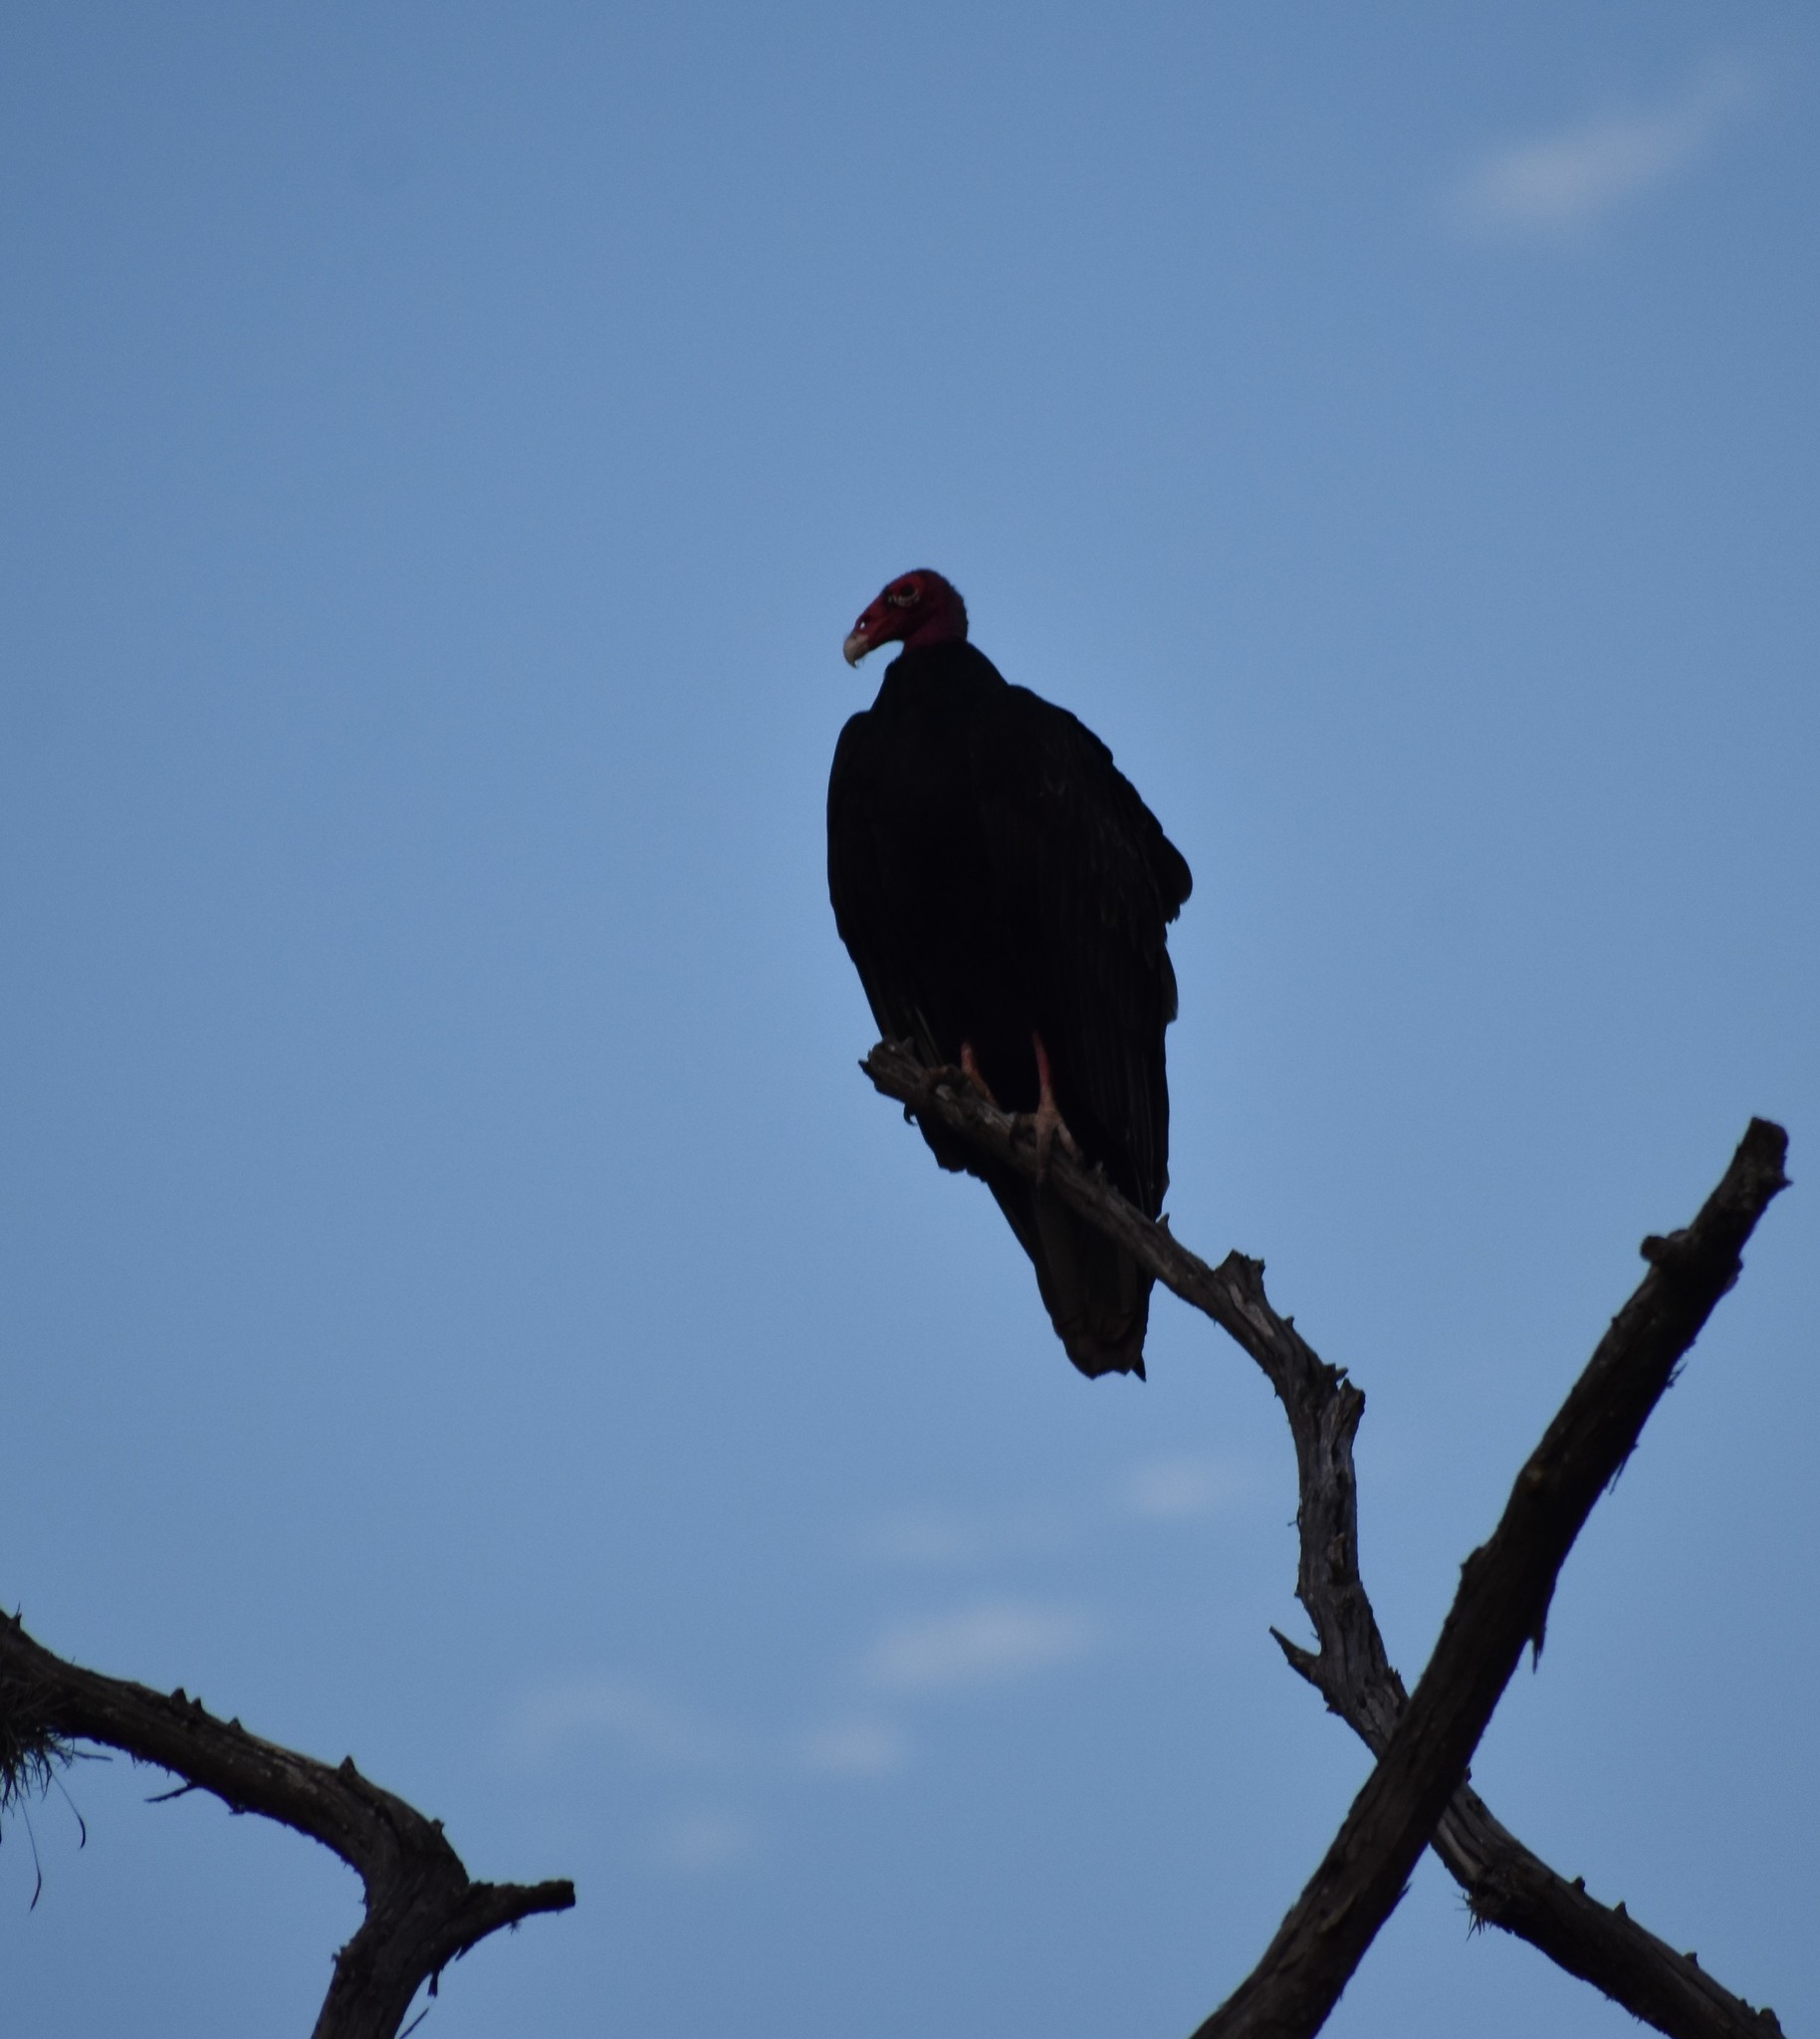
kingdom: Animalia
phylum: Chordata
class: Aves
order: Accipitriformes
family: Cathartidae
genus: Cathartes
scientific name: Cathartes aura
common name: Turkey vulture
